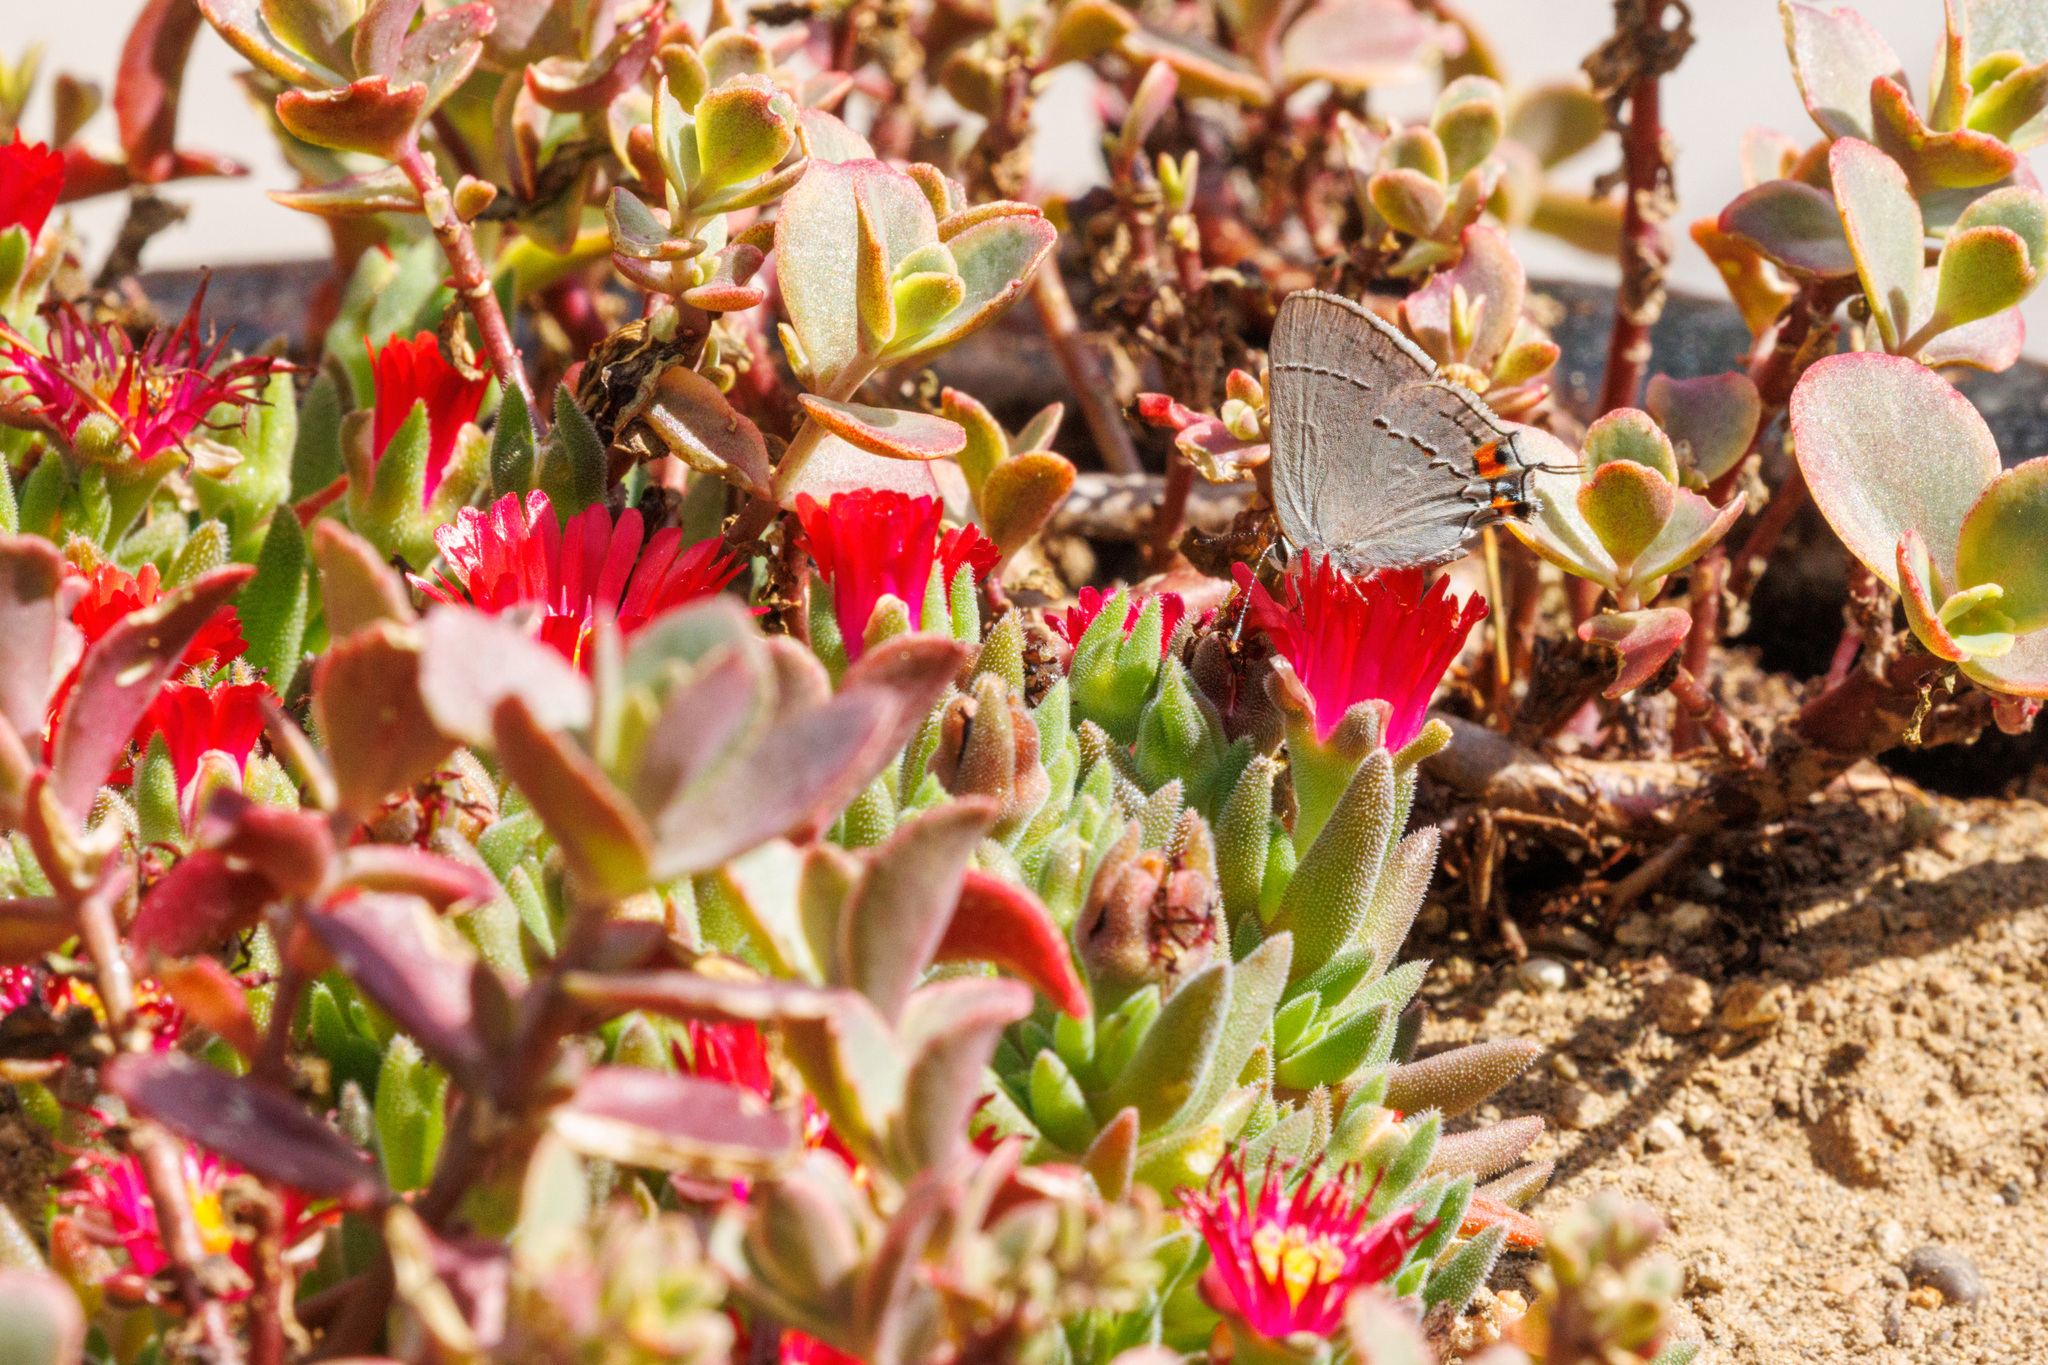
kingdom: Animalia
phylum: Arthropoda
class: Insecta
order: Lepidoptera
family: Lycaenidae
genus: Strymon
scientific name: Strymon melinus
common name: Gray hairstreak
